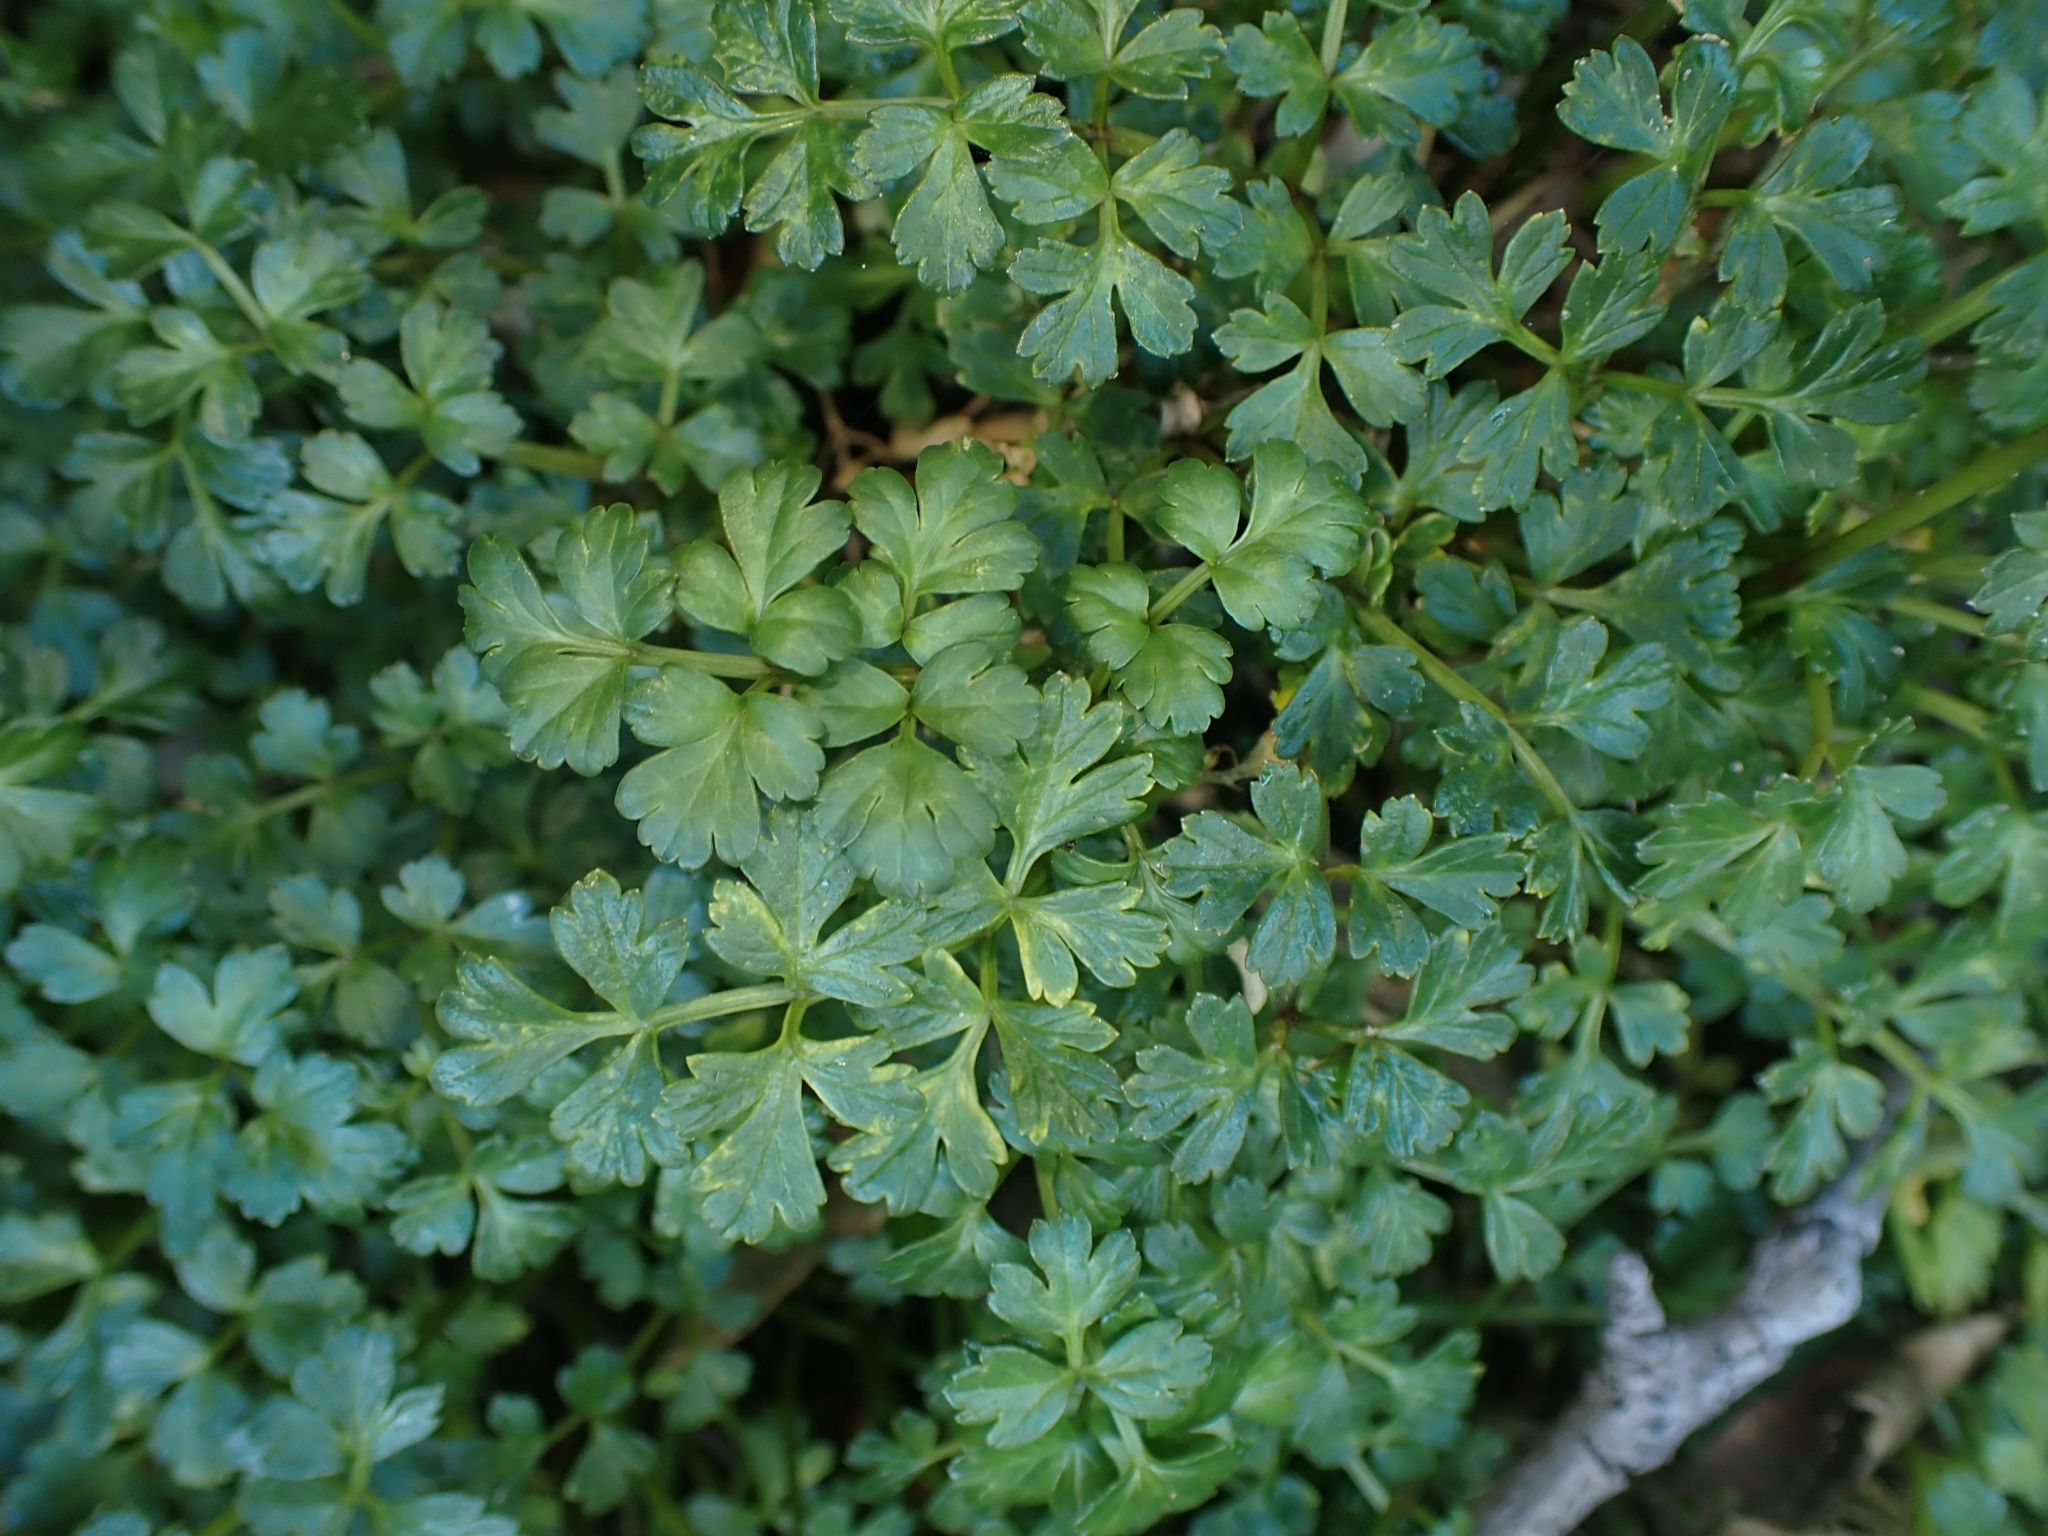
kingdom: Plantae
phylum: Tracheophyta
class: Magnoliopsida
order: Apiales
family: Apiaceae
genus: Apium
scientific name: Apium prostratum
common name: Prostrate marshwort
